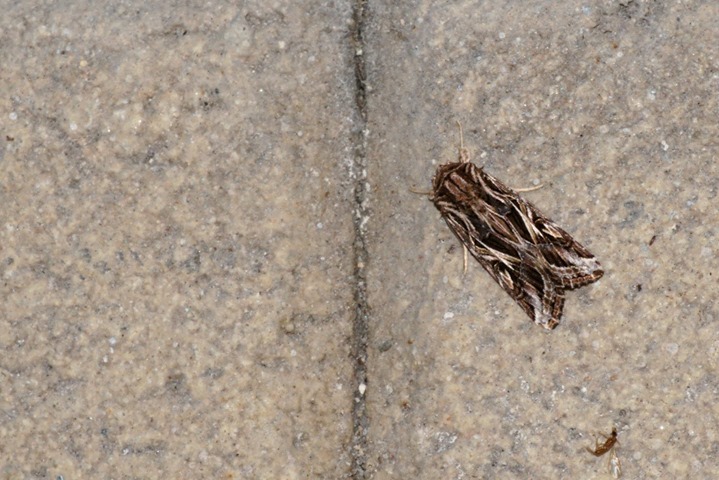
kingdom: Animalia
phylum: Arthropoda
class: Insecta
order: Lepidoptera
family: Noctuidae
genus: Spodoptera
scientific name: Spodoptera pulchella
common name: Caribbean armyworm moth
